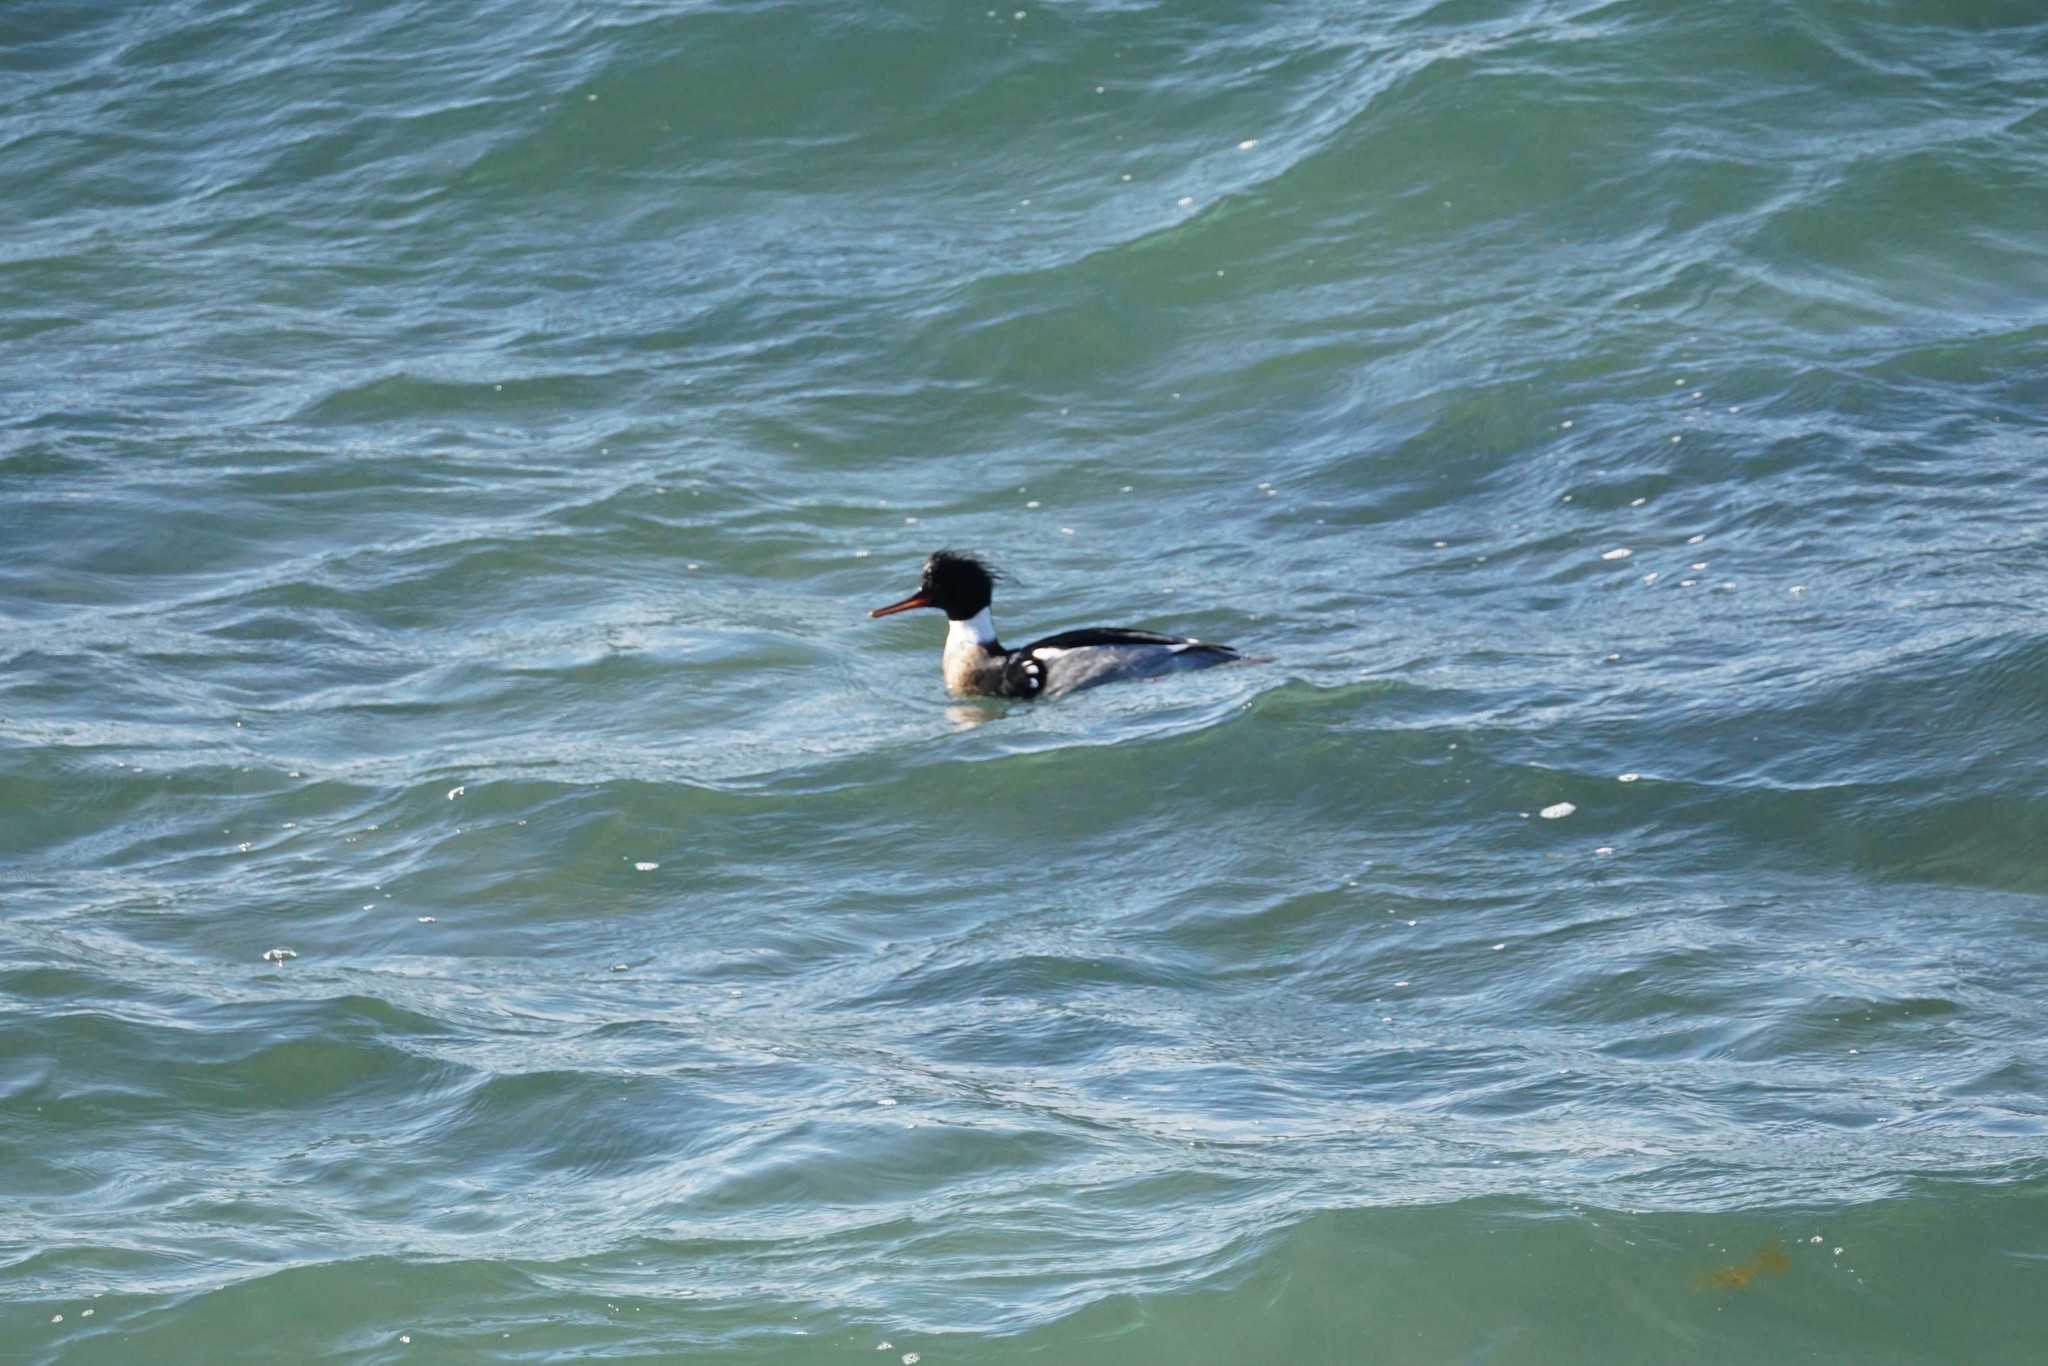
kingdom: Animalia
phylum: Chordata
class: Aves
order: Anseriformes
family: Anatidae
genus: Mergus
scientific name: Mergus serrator
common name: Red-breasted merganser
